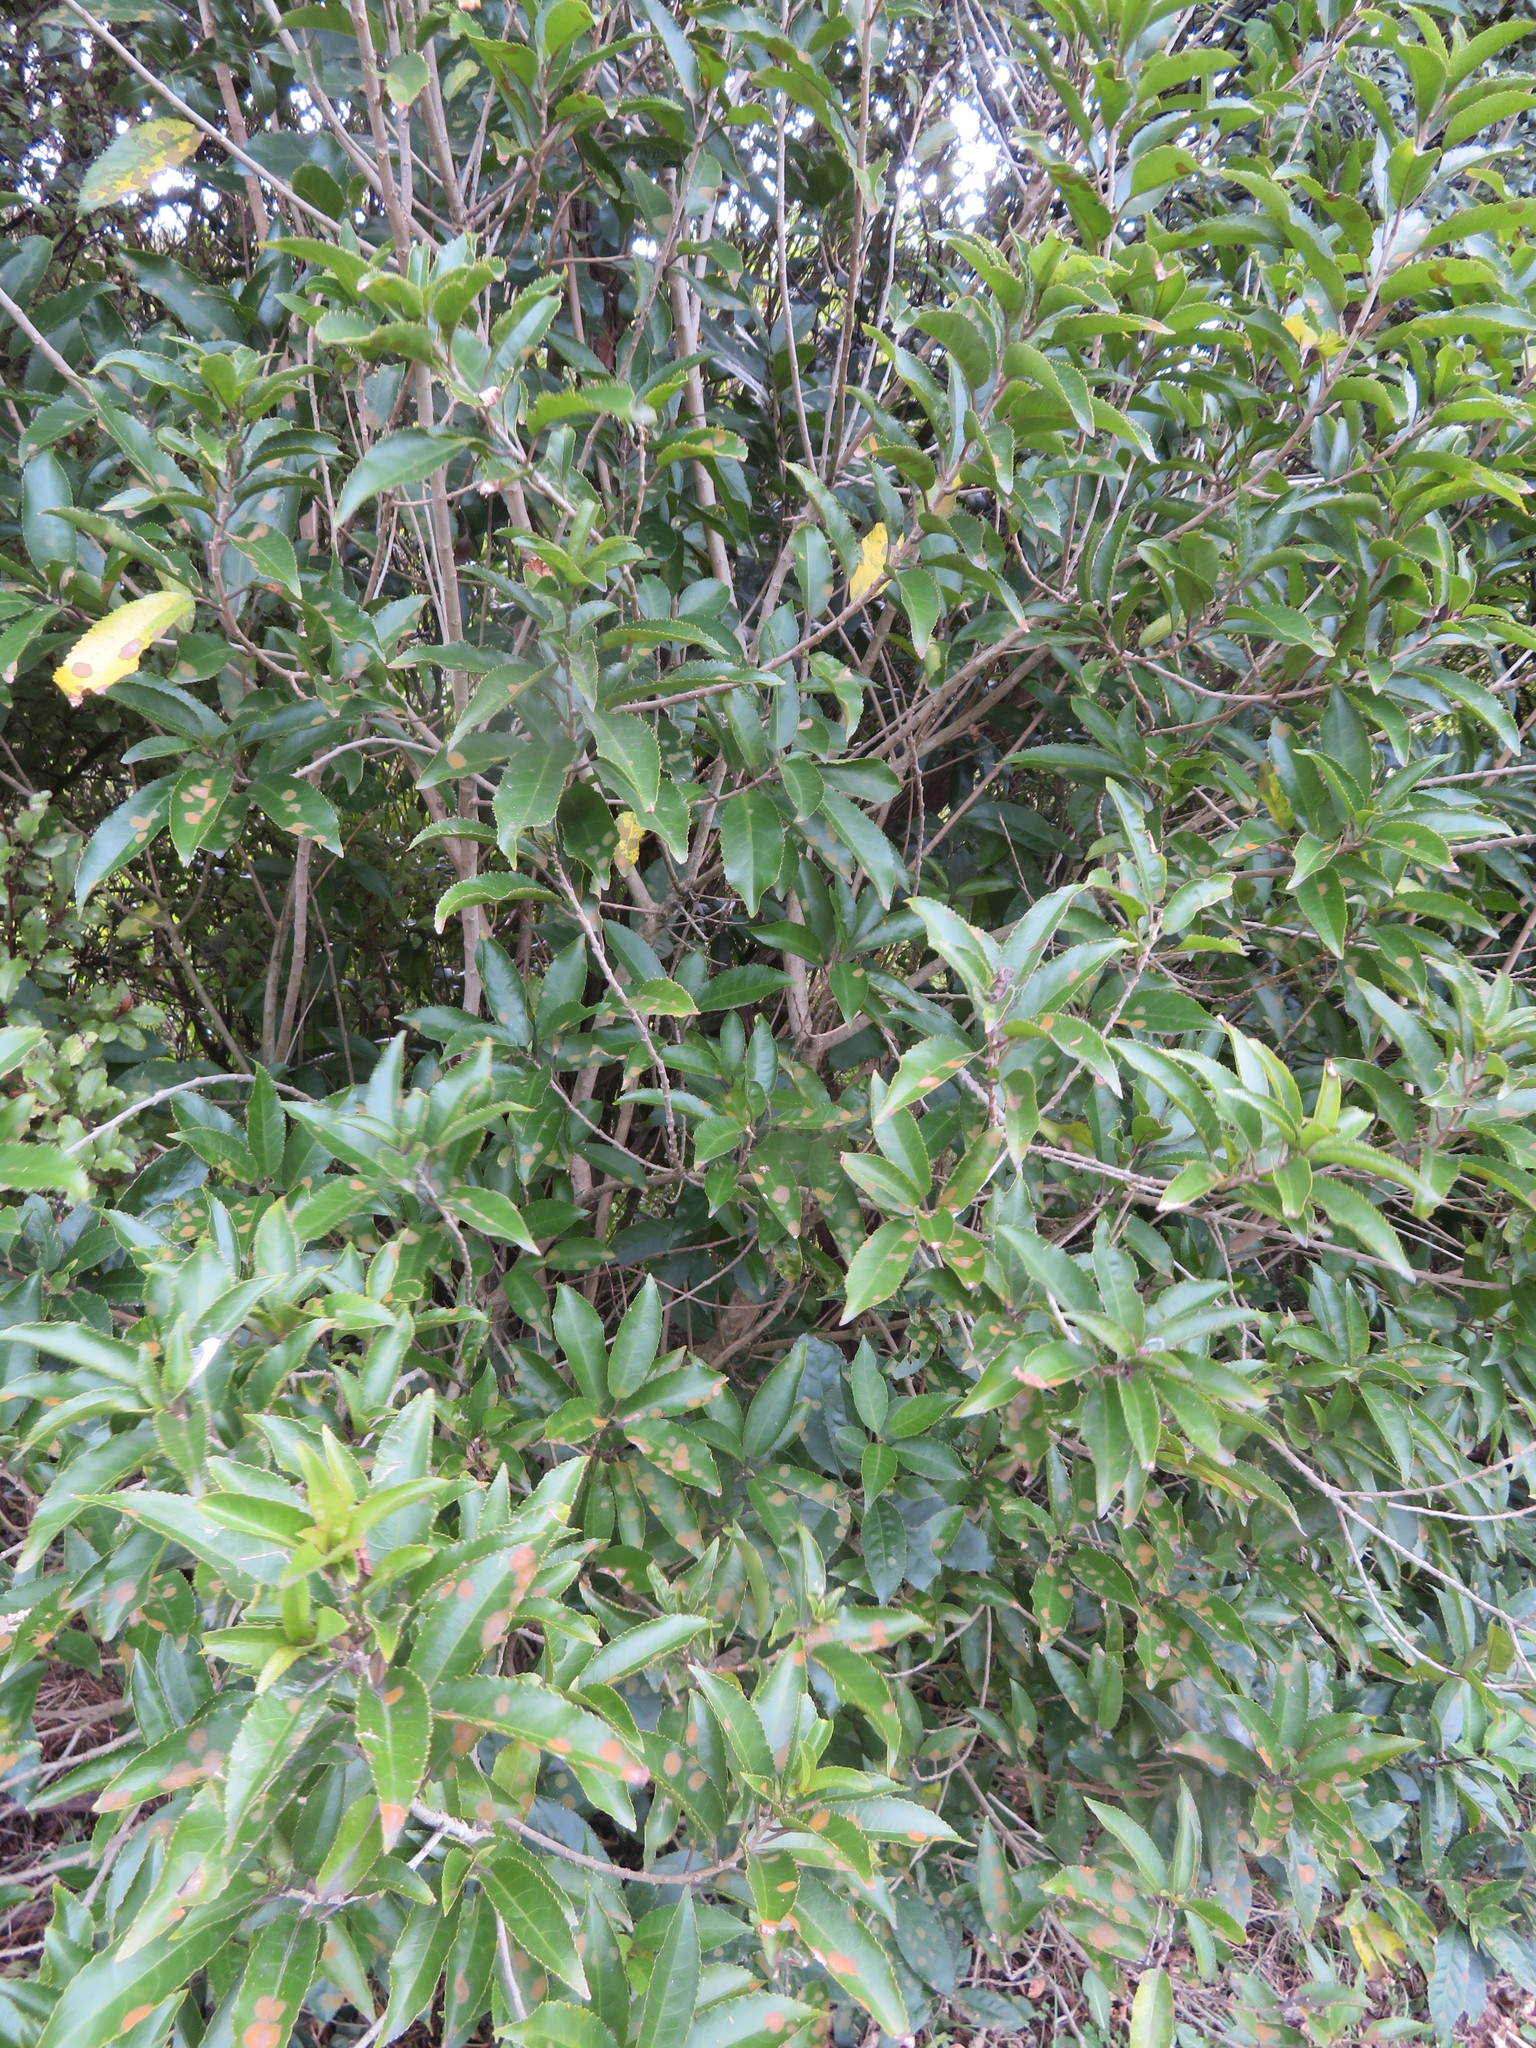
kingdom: Plantae
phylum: Tracheophyta
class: Magnoliopsida
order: Malpighiales
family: Violaceae
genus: Melicytus
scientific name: Melicytus ramiflorus
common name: Mahoe
